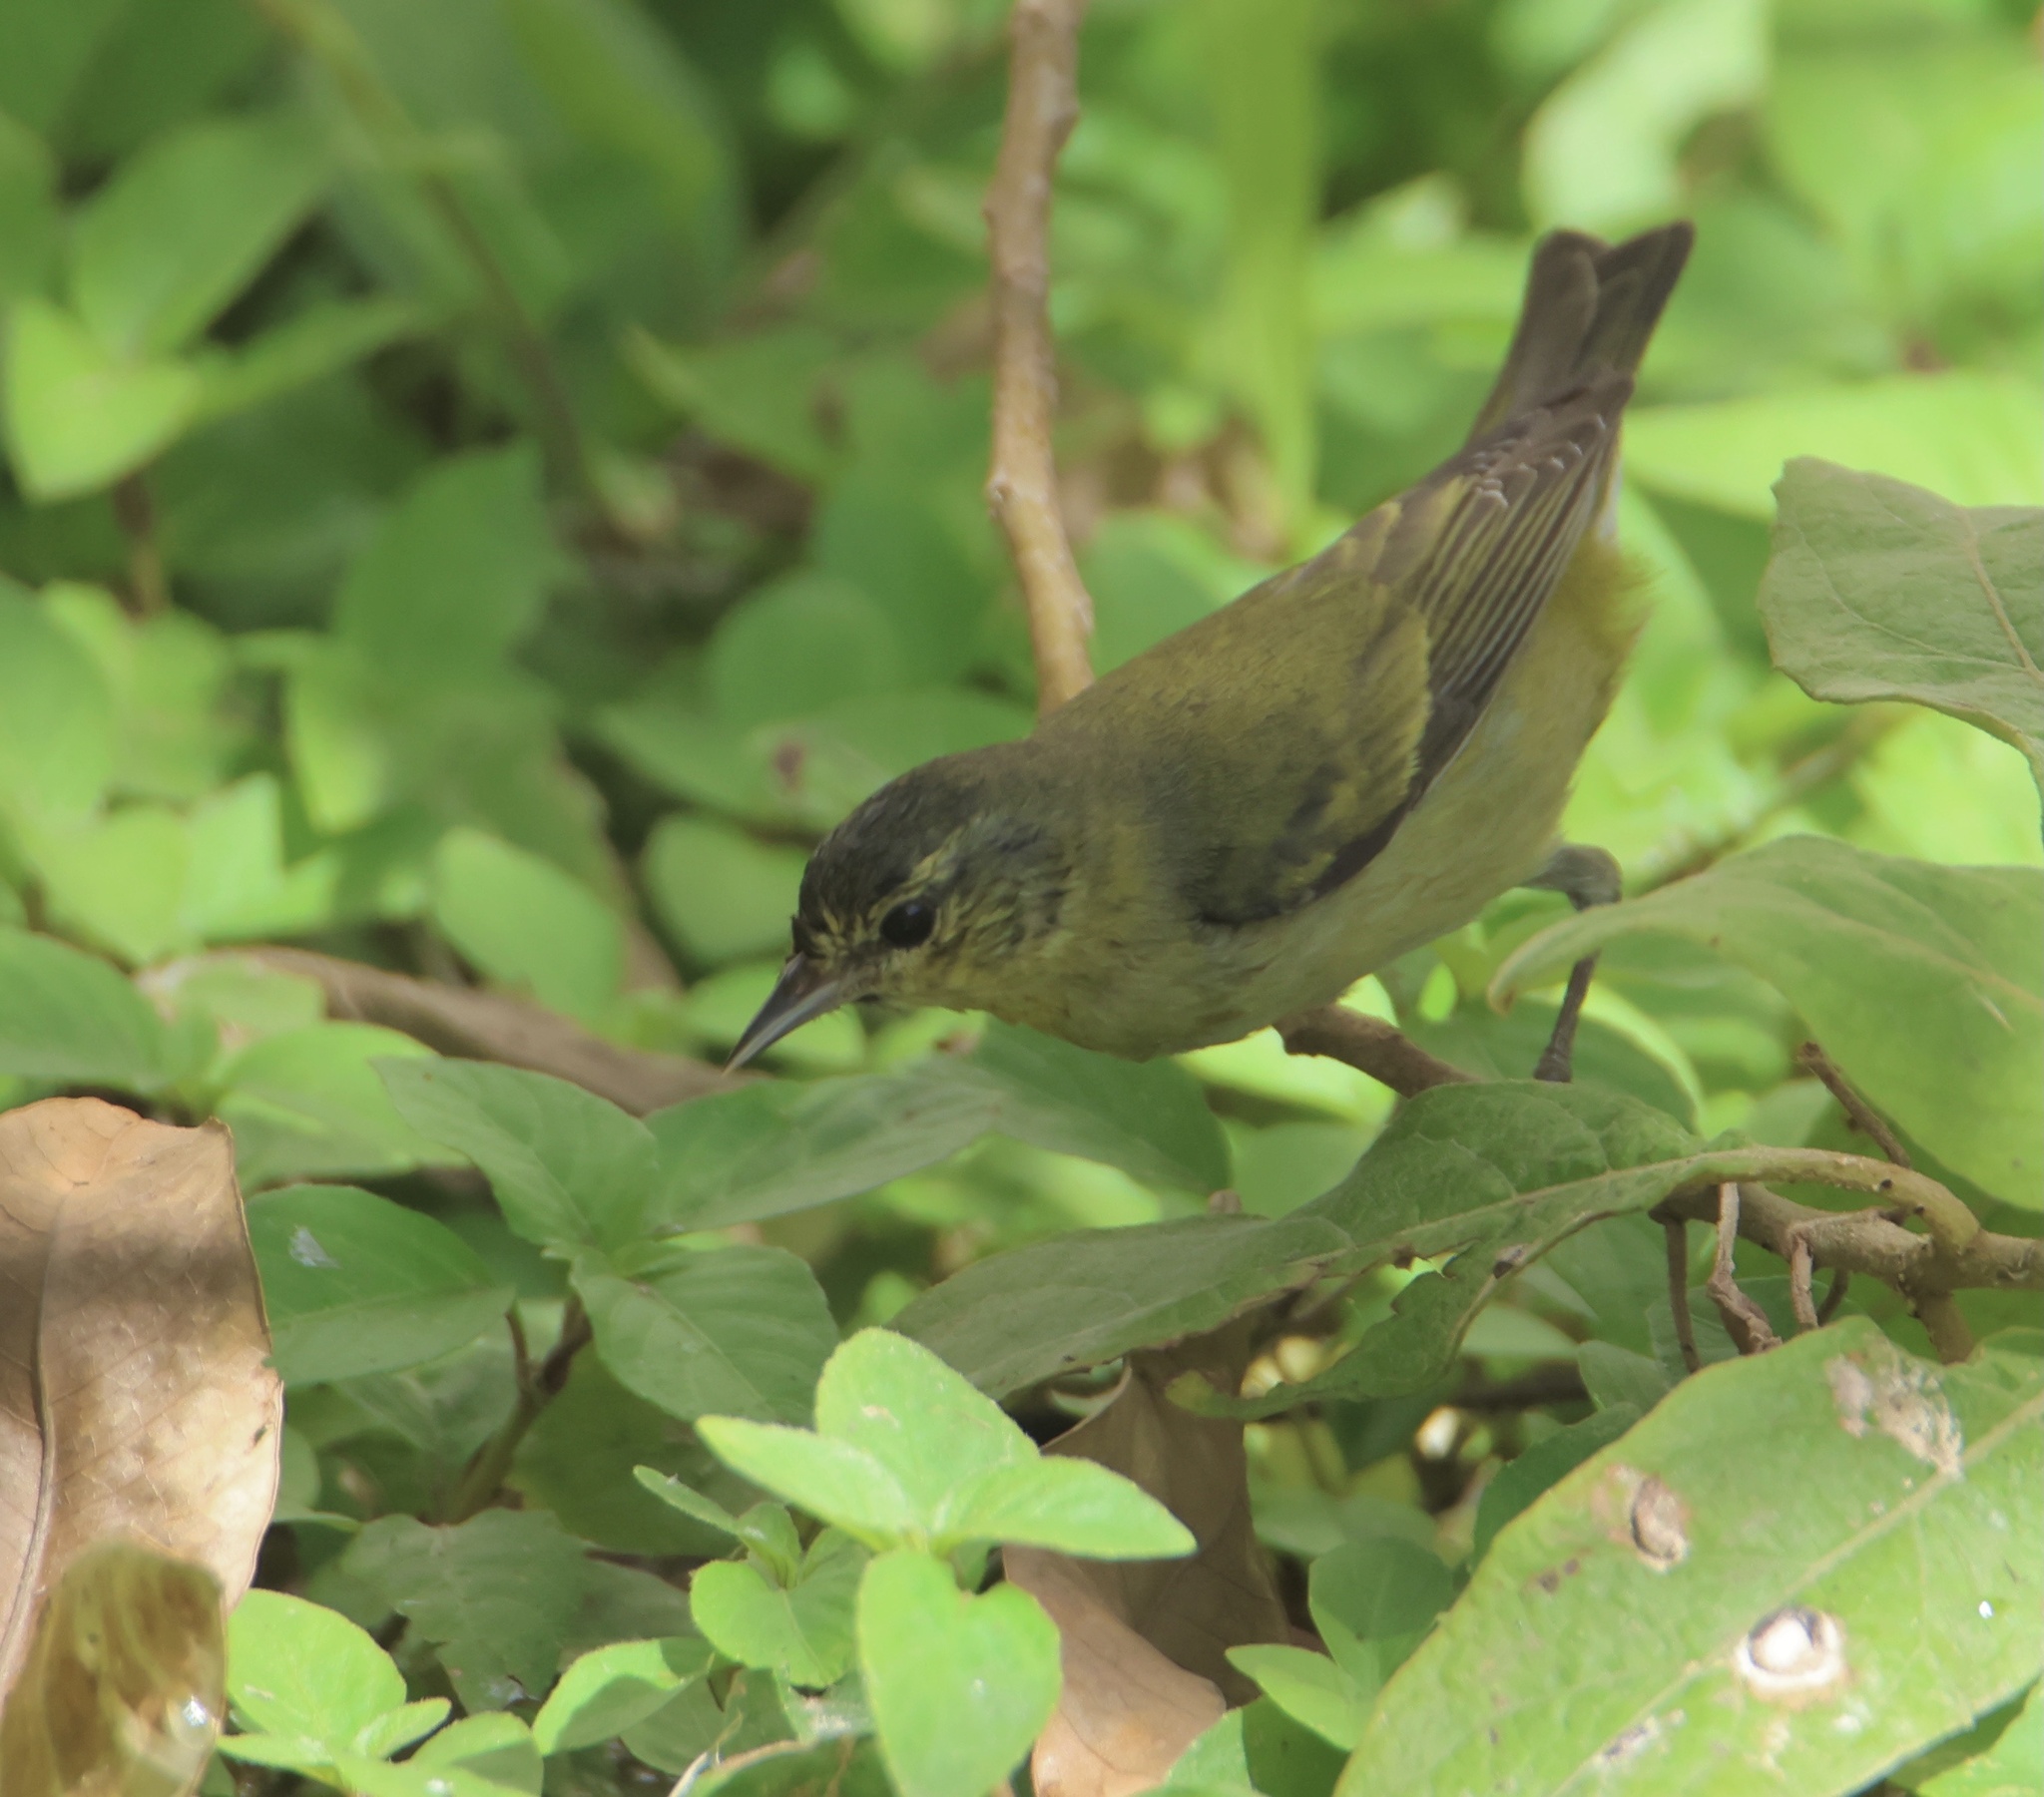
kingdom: Animalia
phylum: Chordata
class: Aves
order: Passeriformes
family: Parulidae
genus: Leiothlypis
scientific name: Leiothlypis peregrina
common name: Tennessee warbler
